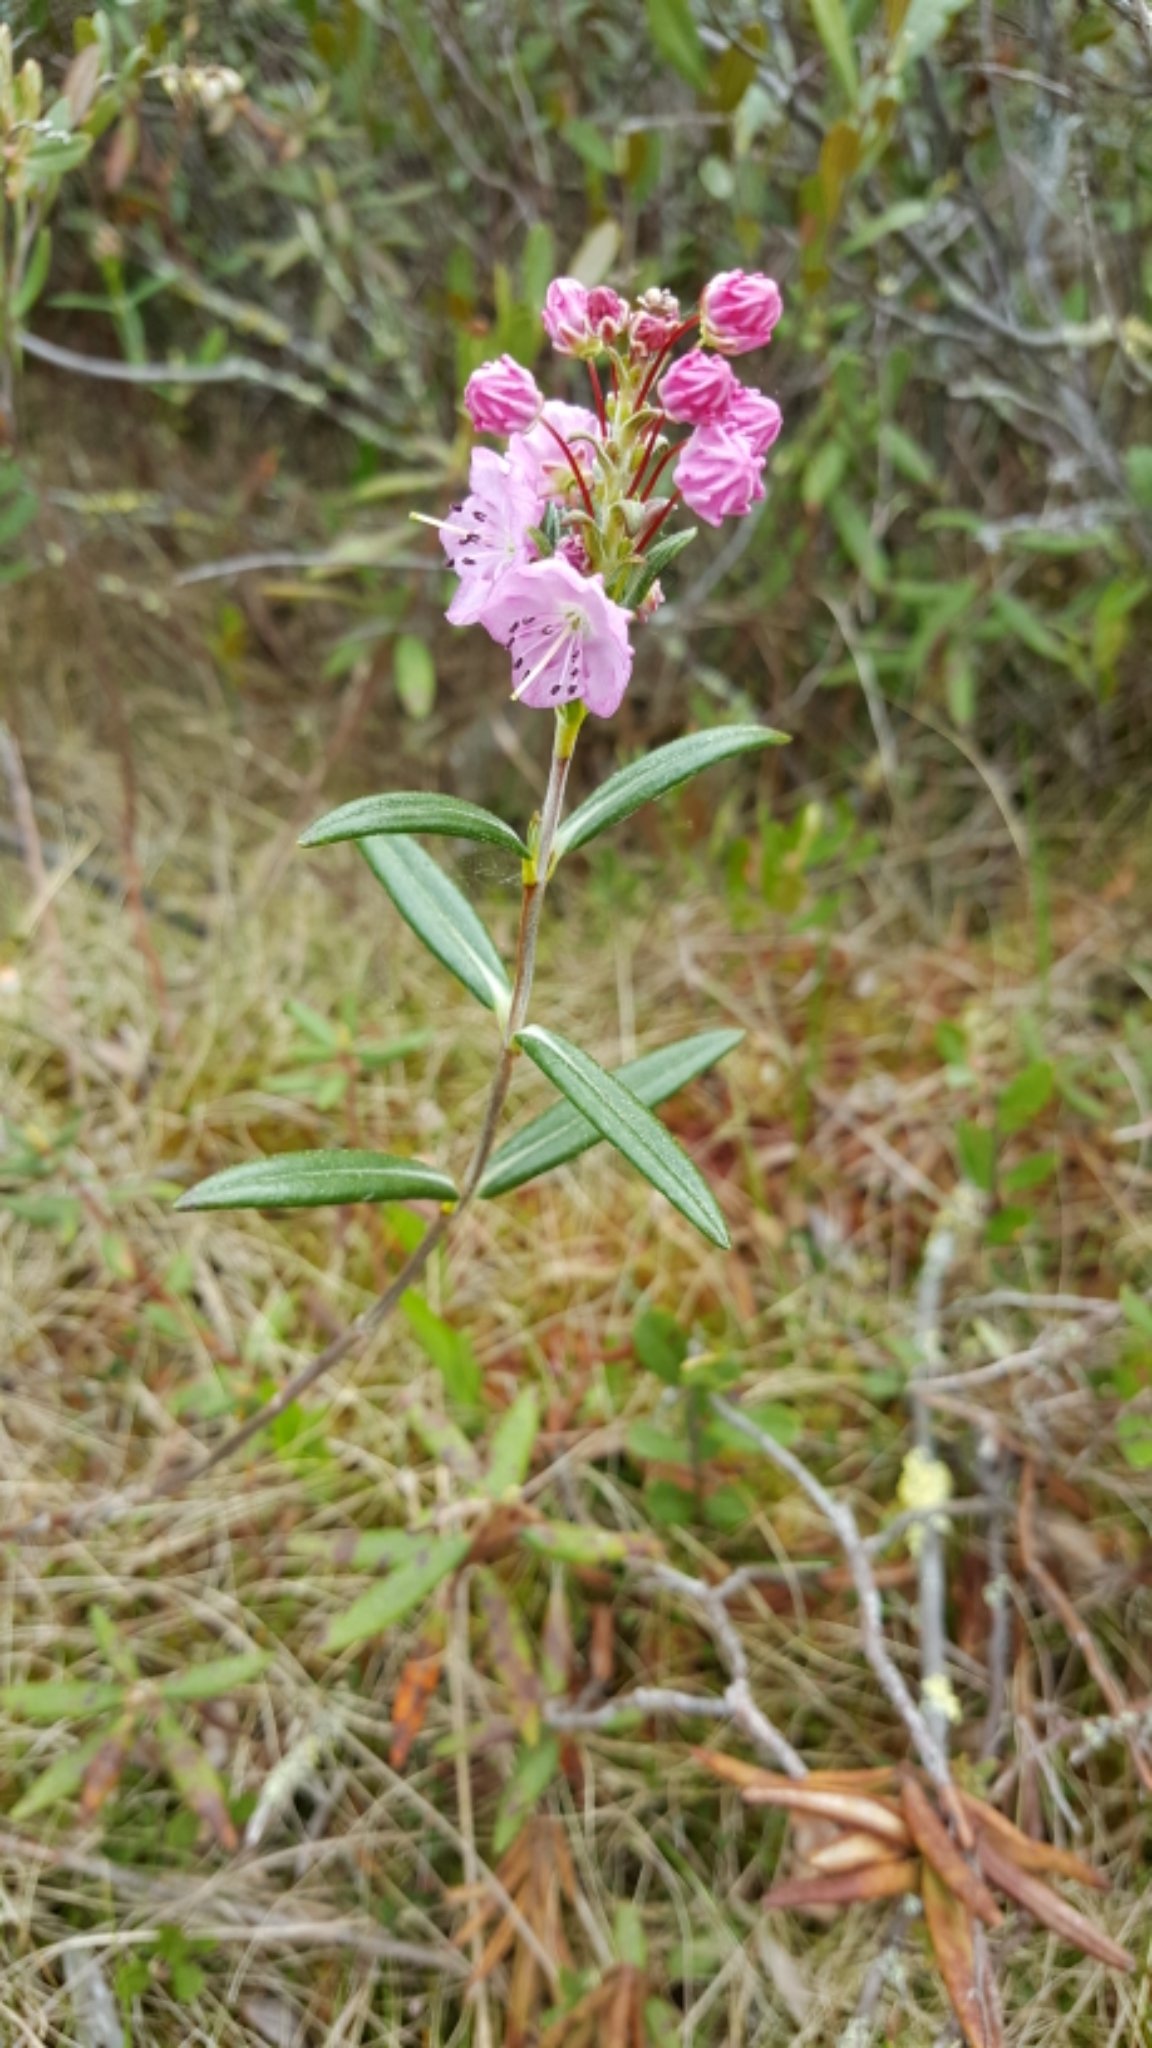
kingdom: Plantae
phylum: Tracheophyta
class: Magnoliopsida
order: Ericales
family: Ericaceae
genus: Kalmia
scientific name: Kalmia polifolia
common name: Bog-laurel
